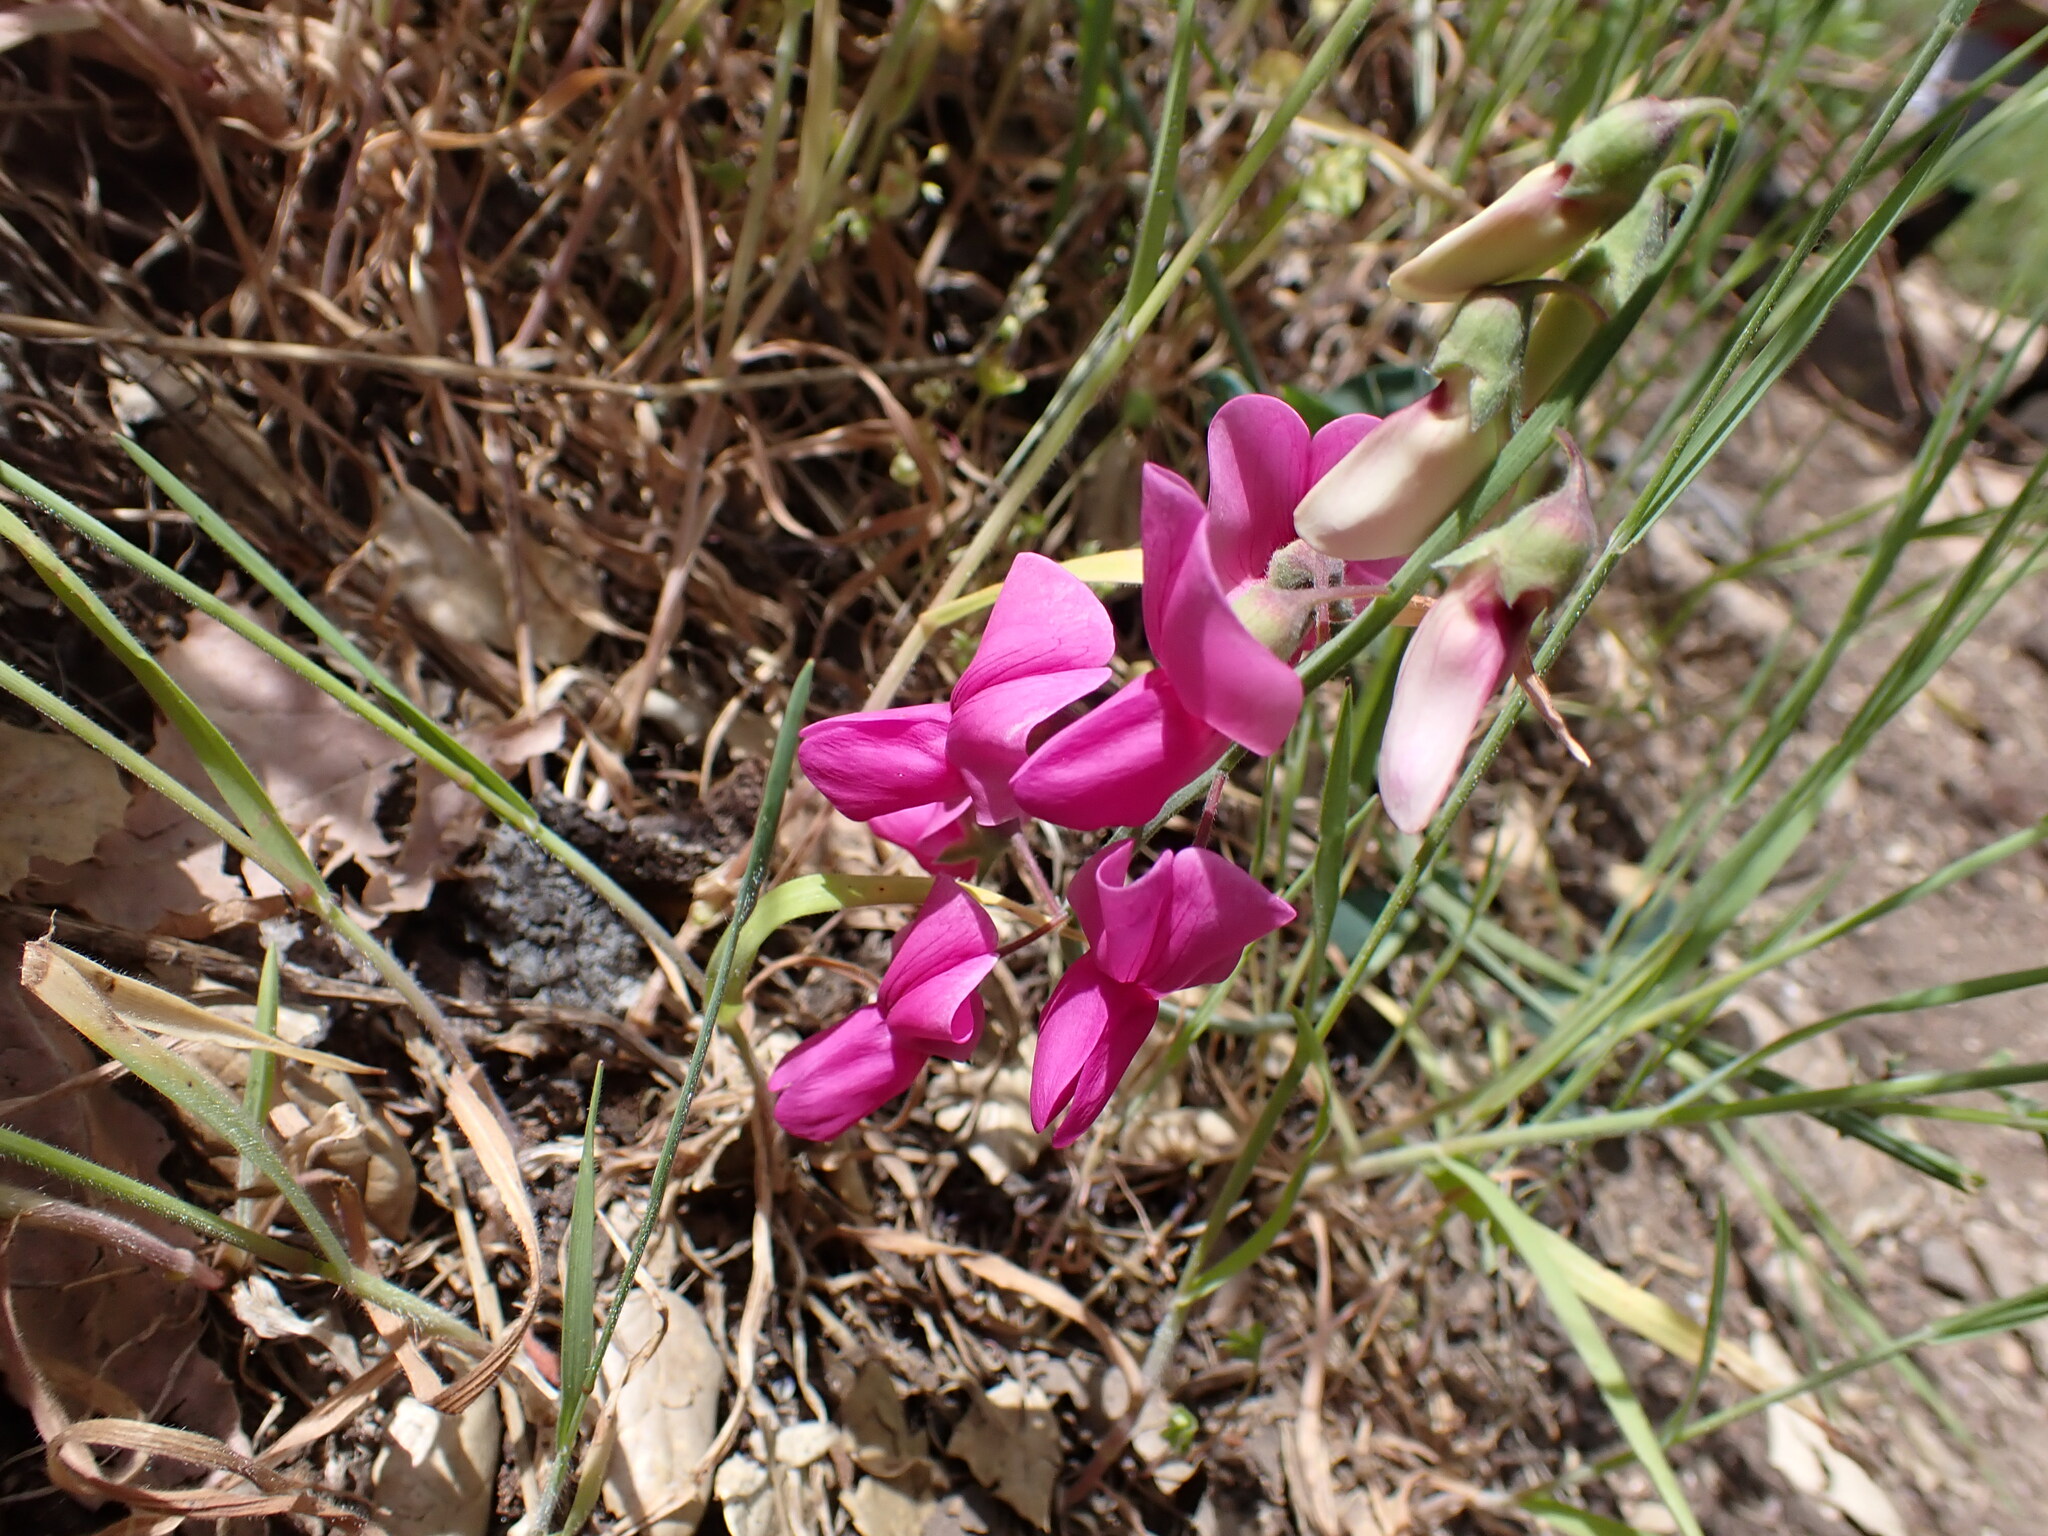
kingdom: Plantae
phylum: Tracheophyta
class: Magnoliopsida
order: Fabales
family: Fabaceae
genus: Lathyrus
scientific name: Lathyrus vestitus
